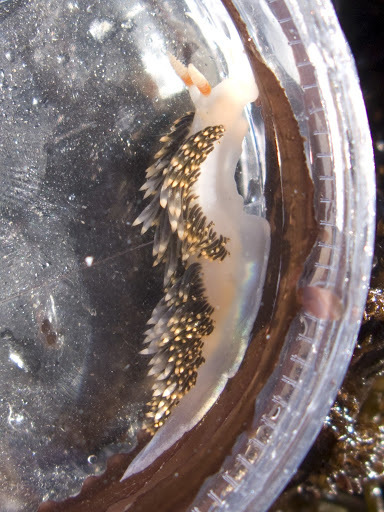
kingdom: Animalia
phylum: Mollusca
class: Gastropoda
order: Nudibranchia
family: Facelinidae
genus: Phidiana
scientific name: Phidiana hiltoni
